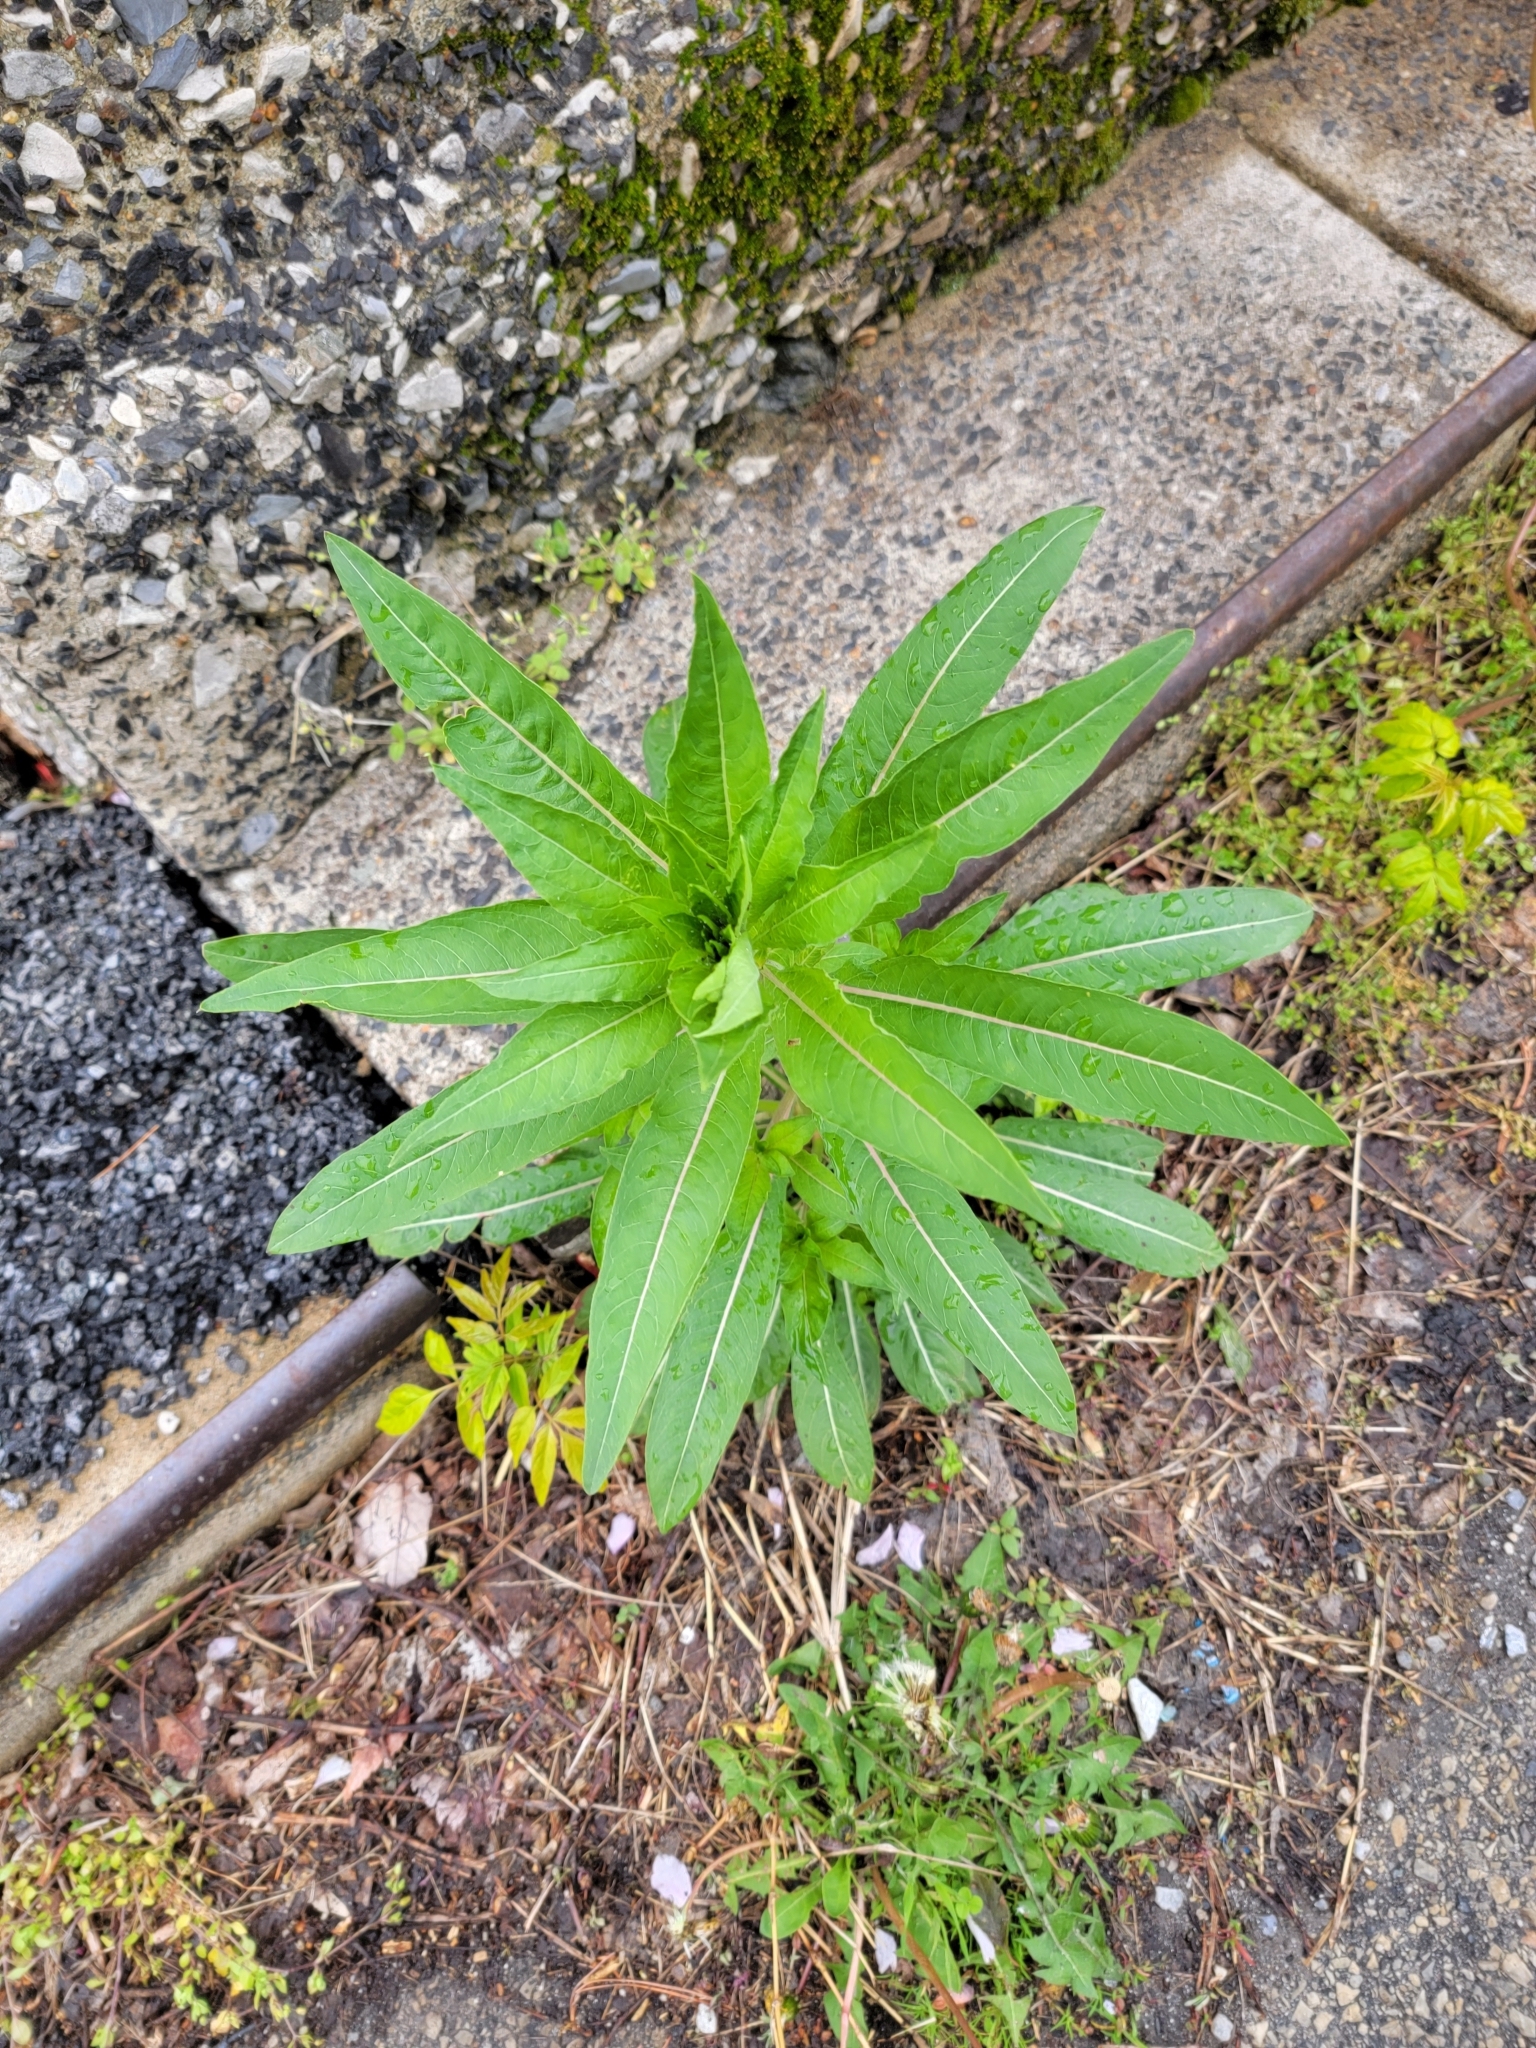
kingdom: Plantae
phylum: Tracheophyta
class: Magnoliopsida
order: Myrtales
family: Onagraceae
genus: Oenothera
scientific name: Oenothera biennis
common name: Common evening-primrose
